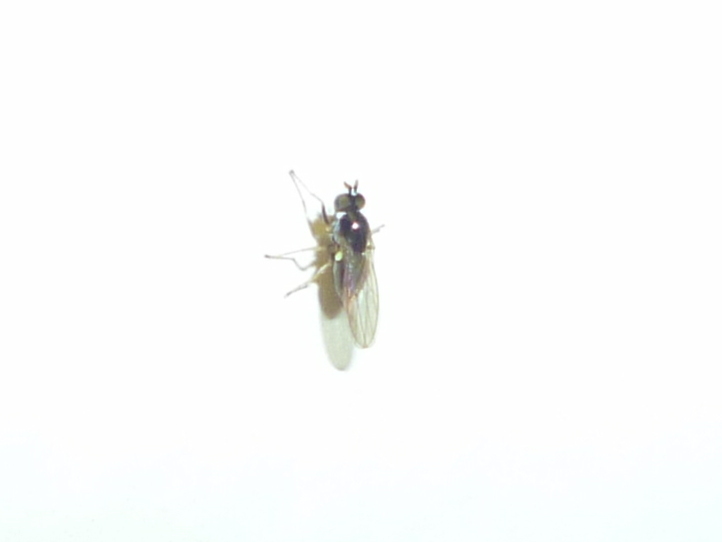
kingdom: Animalia
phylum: Arthropoda
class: Insecta
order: Diptera
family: Ephydridae
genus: Hydrellia
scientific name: Hydrellia formosa
